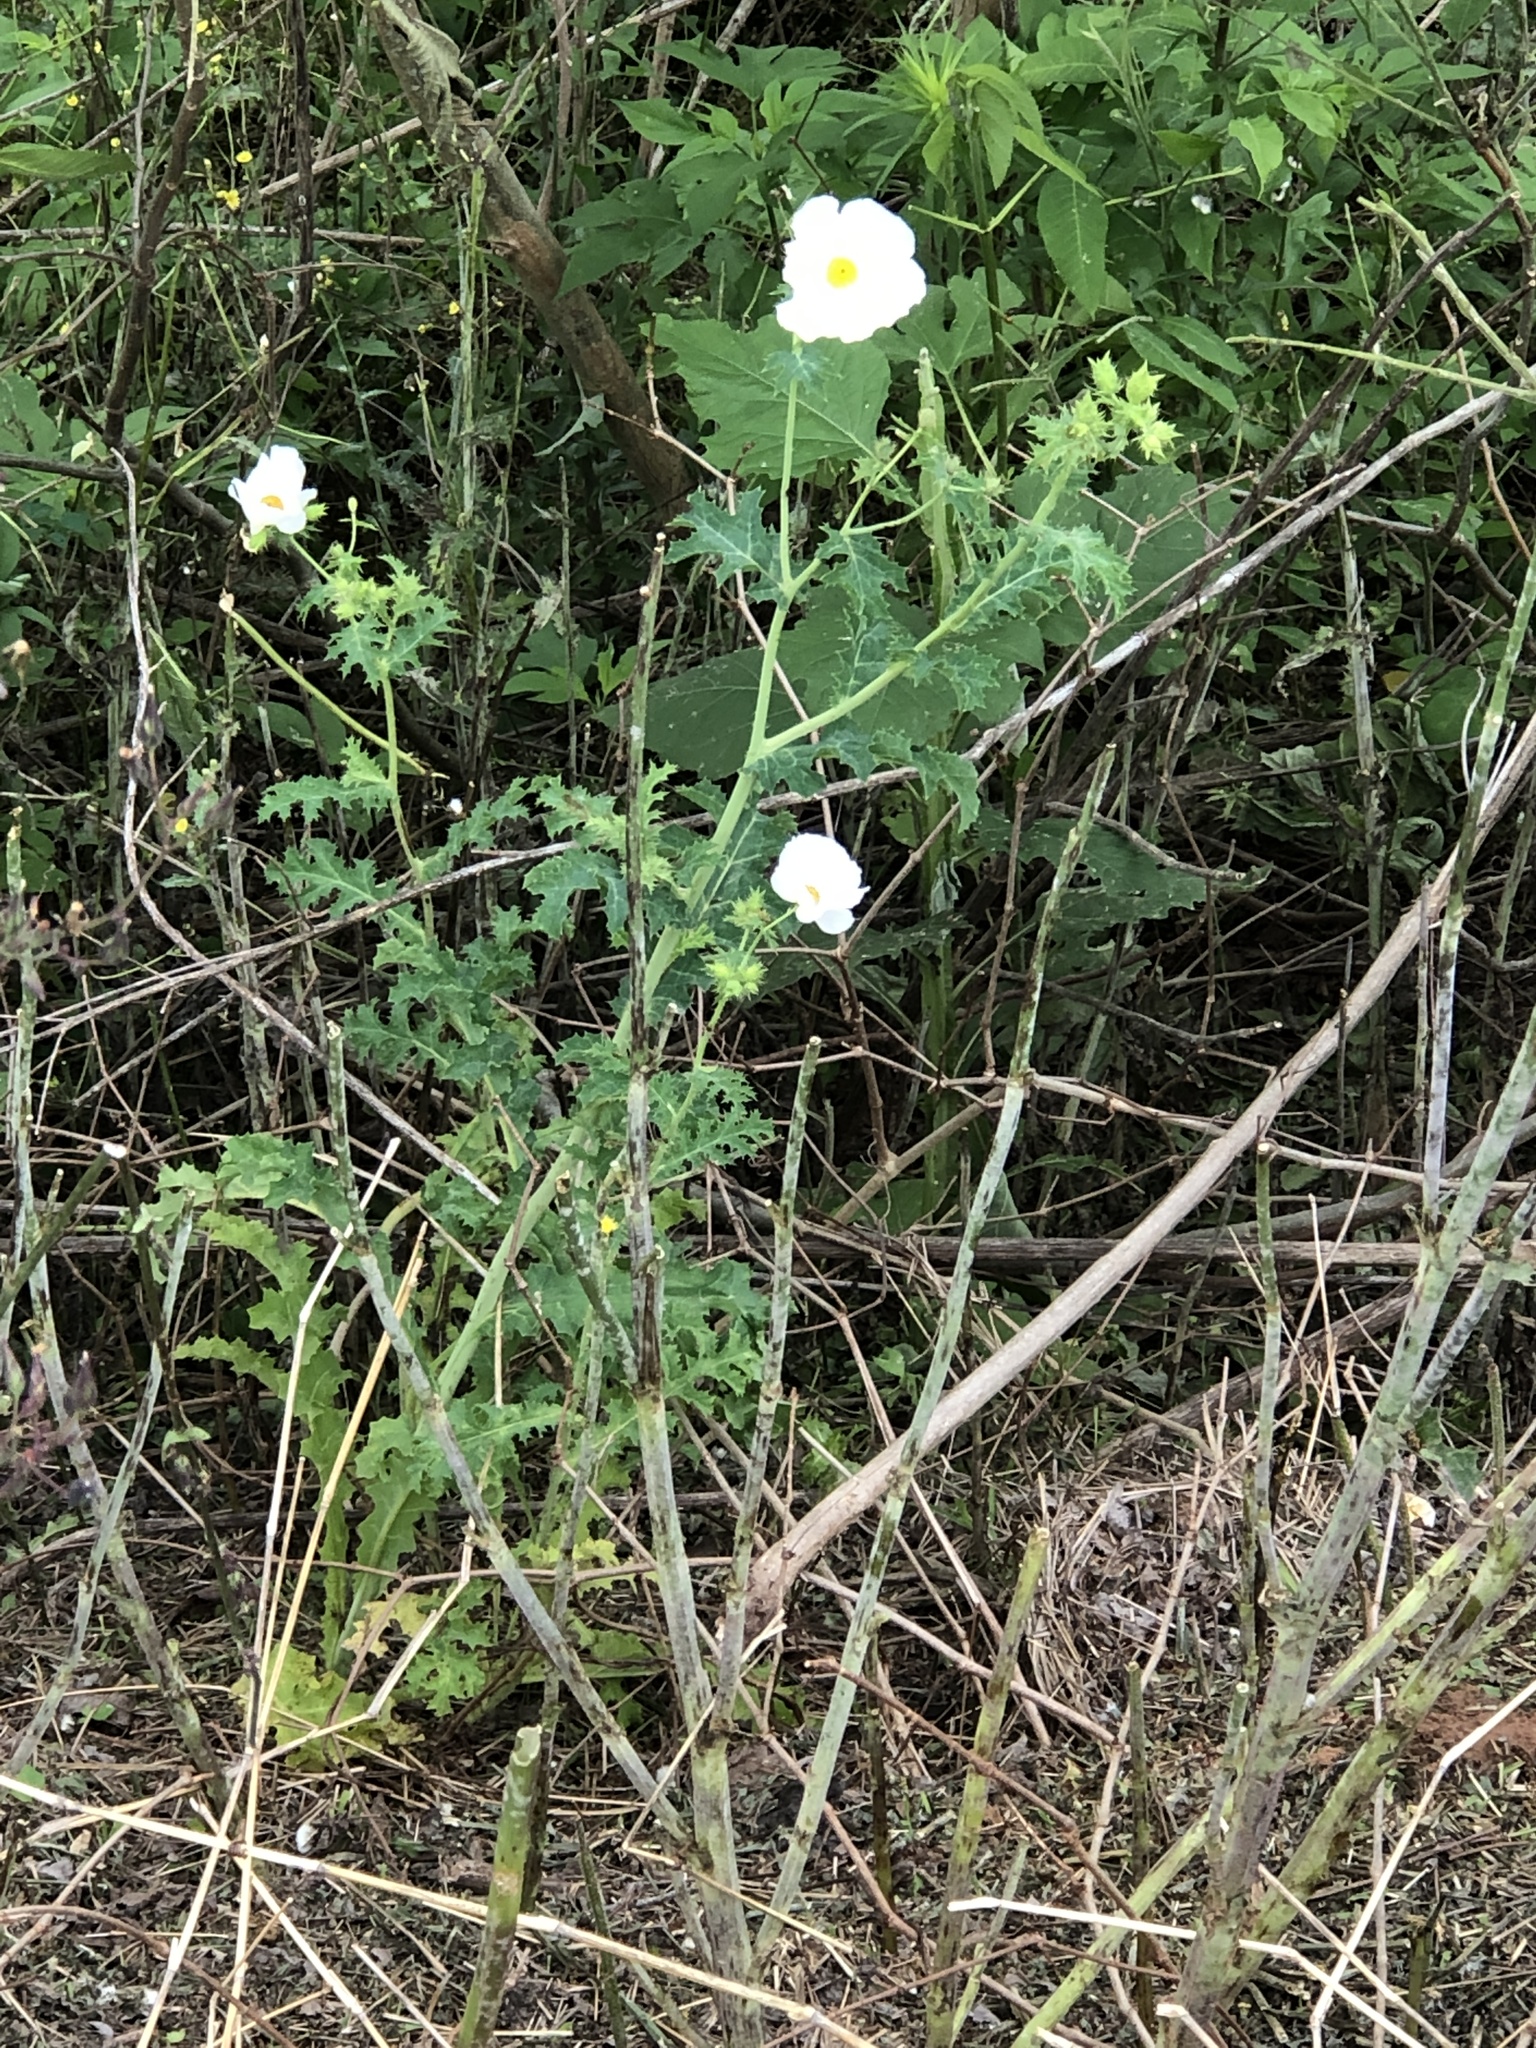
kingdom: Plantae
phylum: Tracheophyta
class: Magnoliopsida
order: Ranunculales
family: Papaveraceae
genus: Argemone
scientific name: Argemone albiflora
